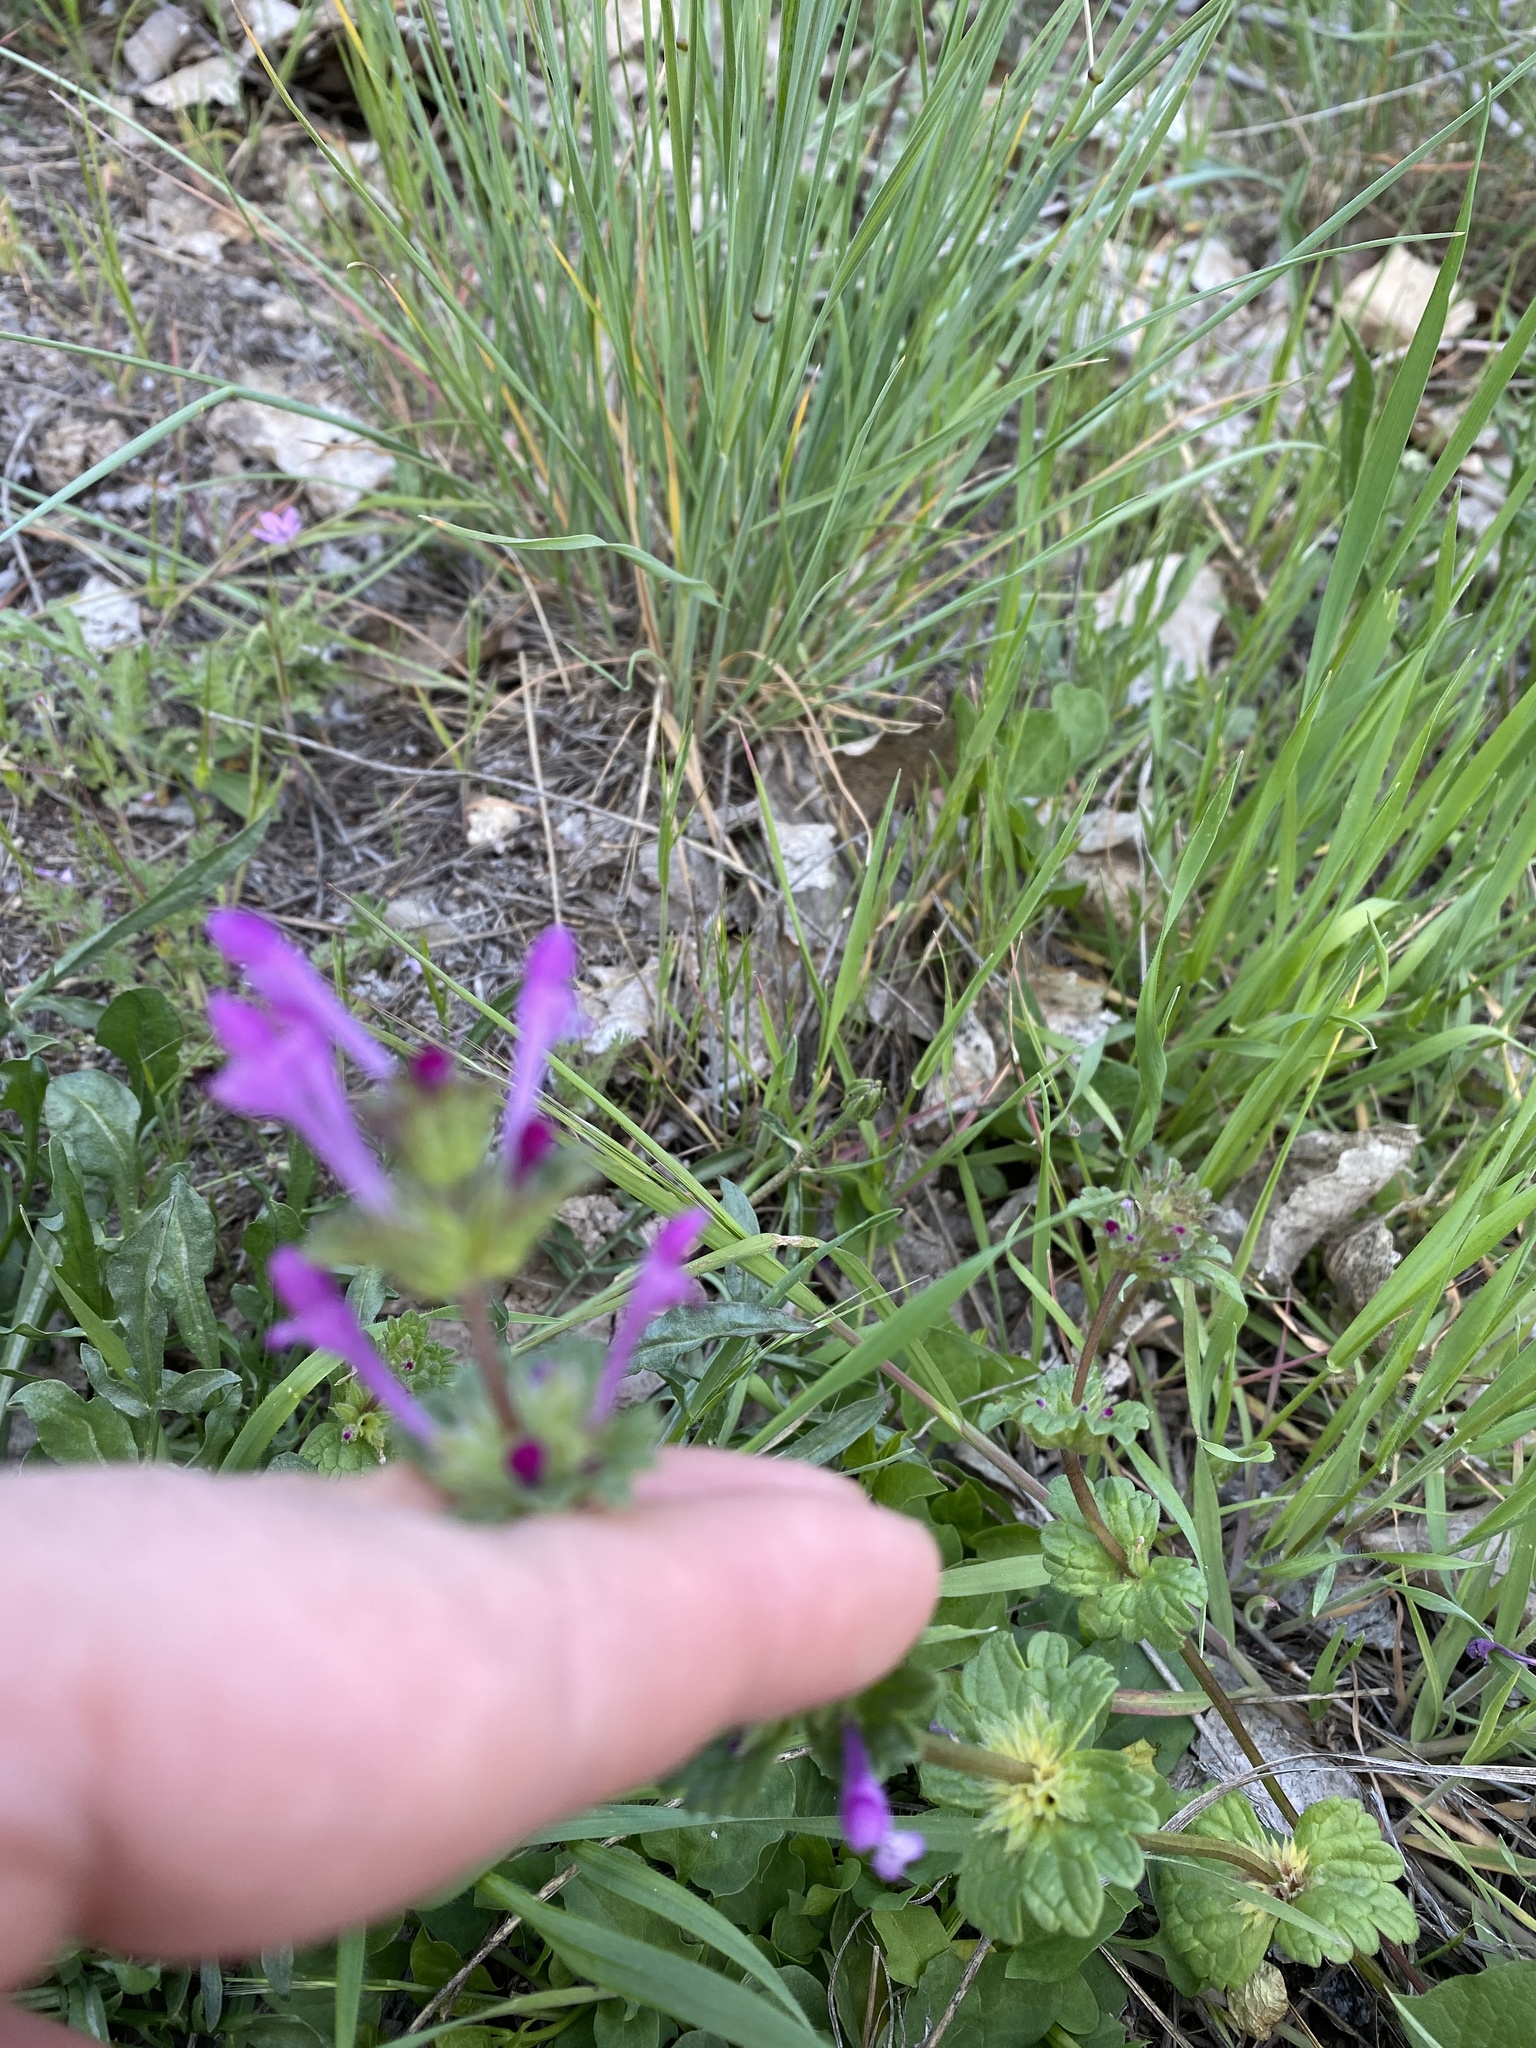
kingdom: Plantae
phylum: Tracheophyta
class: Magnoliopsida
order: Lamiales
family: Lamiaceae
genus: Lamium
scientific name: Lamium amplexicaule
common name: Henbit dead-nettle
